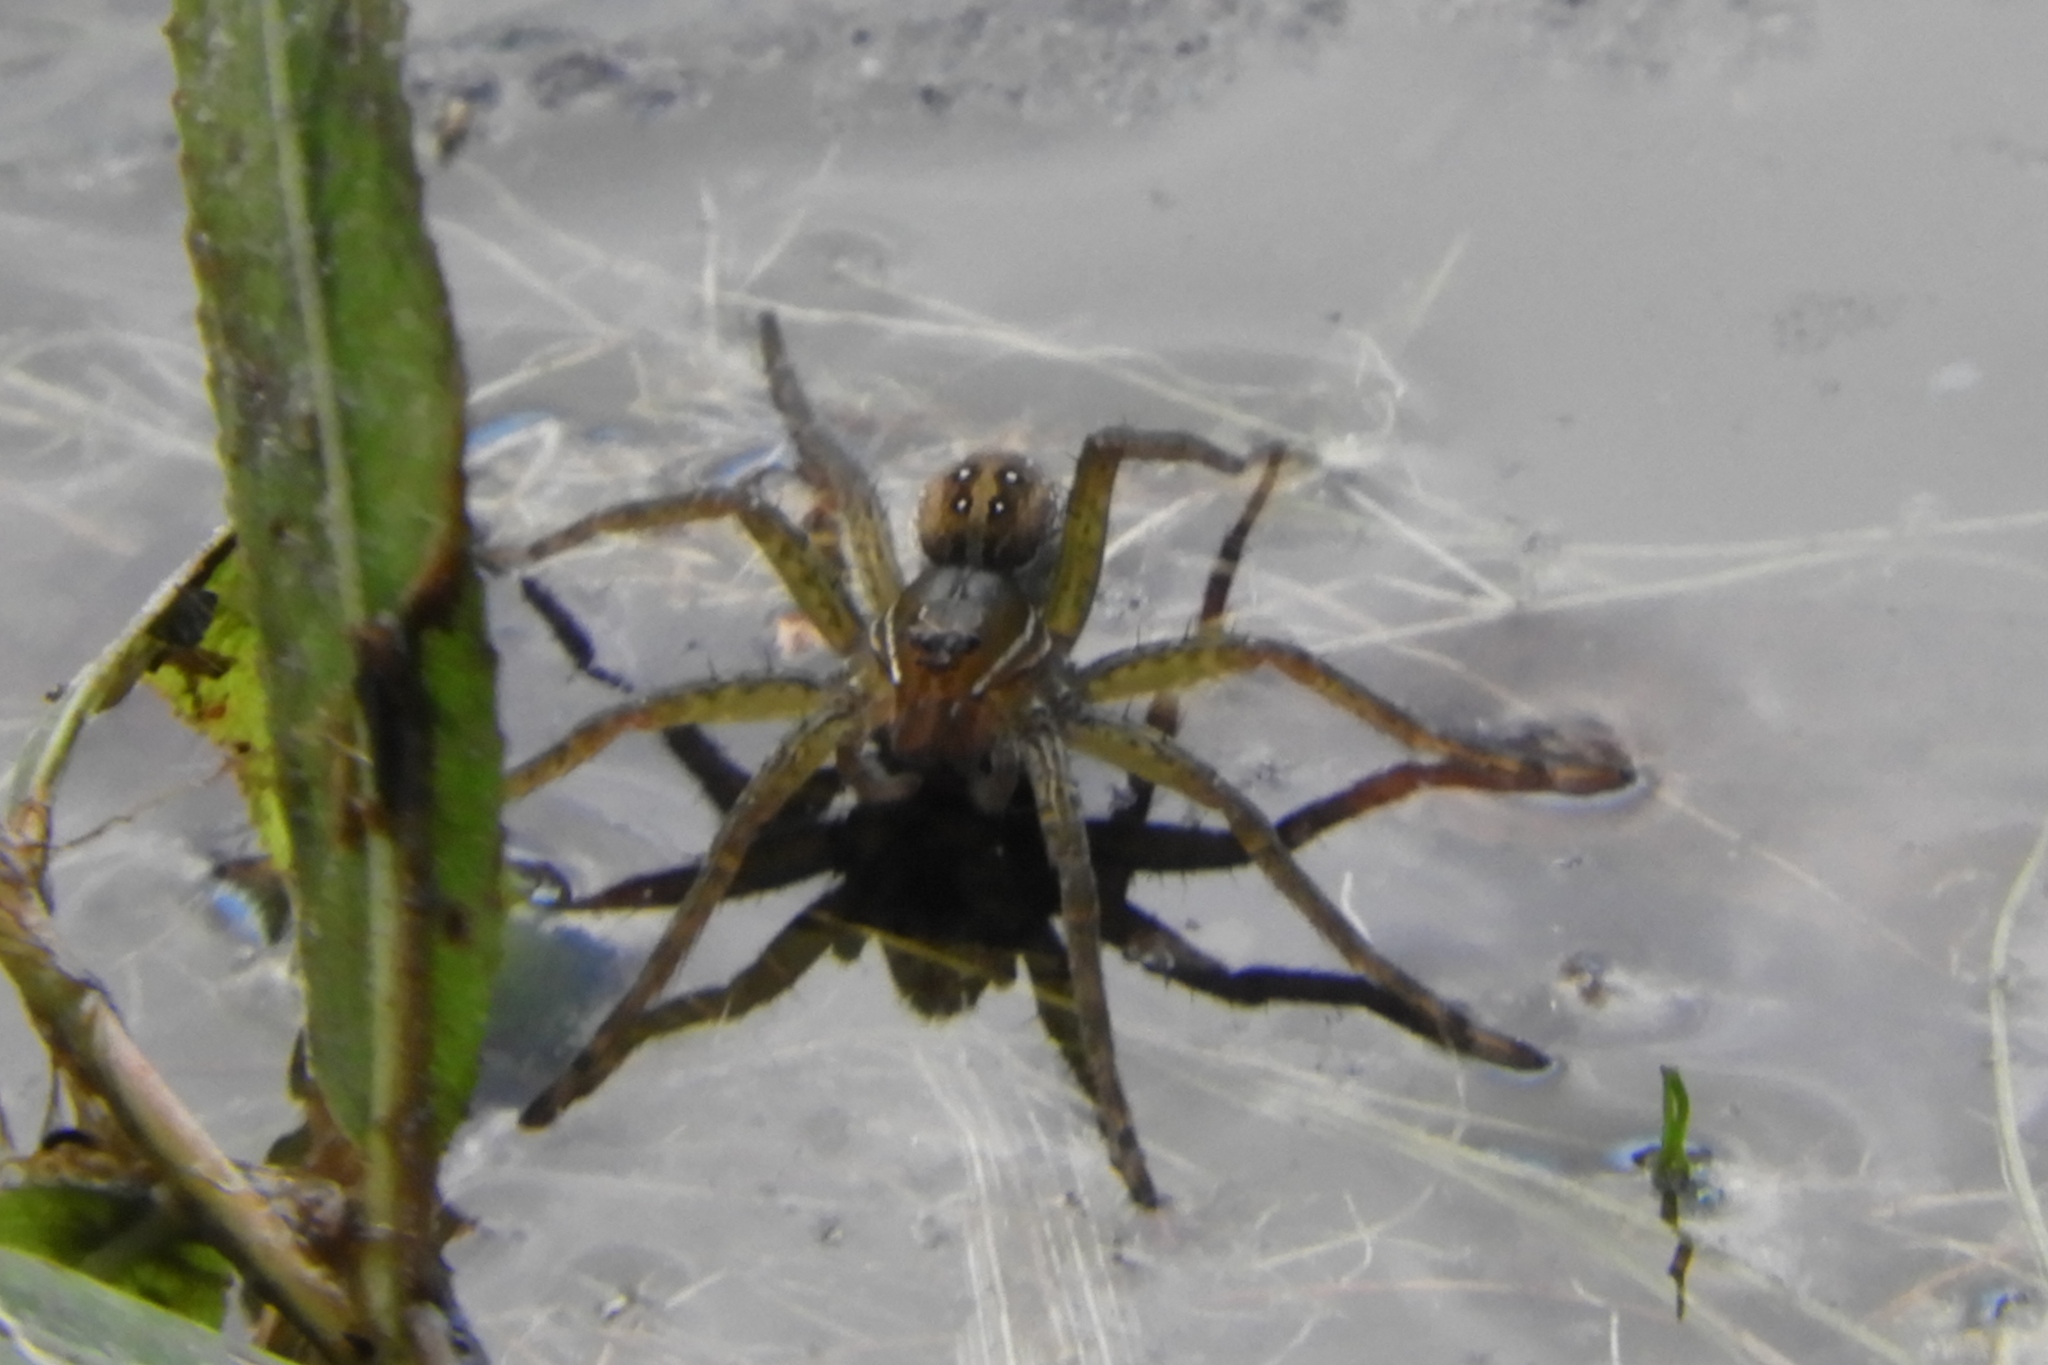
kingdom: Animalia
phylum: Arthropoda
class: Arachnida
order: Araneae
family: Pisauridae
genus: Dolomedes
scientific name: Dolomedes triton
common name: Six-spotted fishing spider
